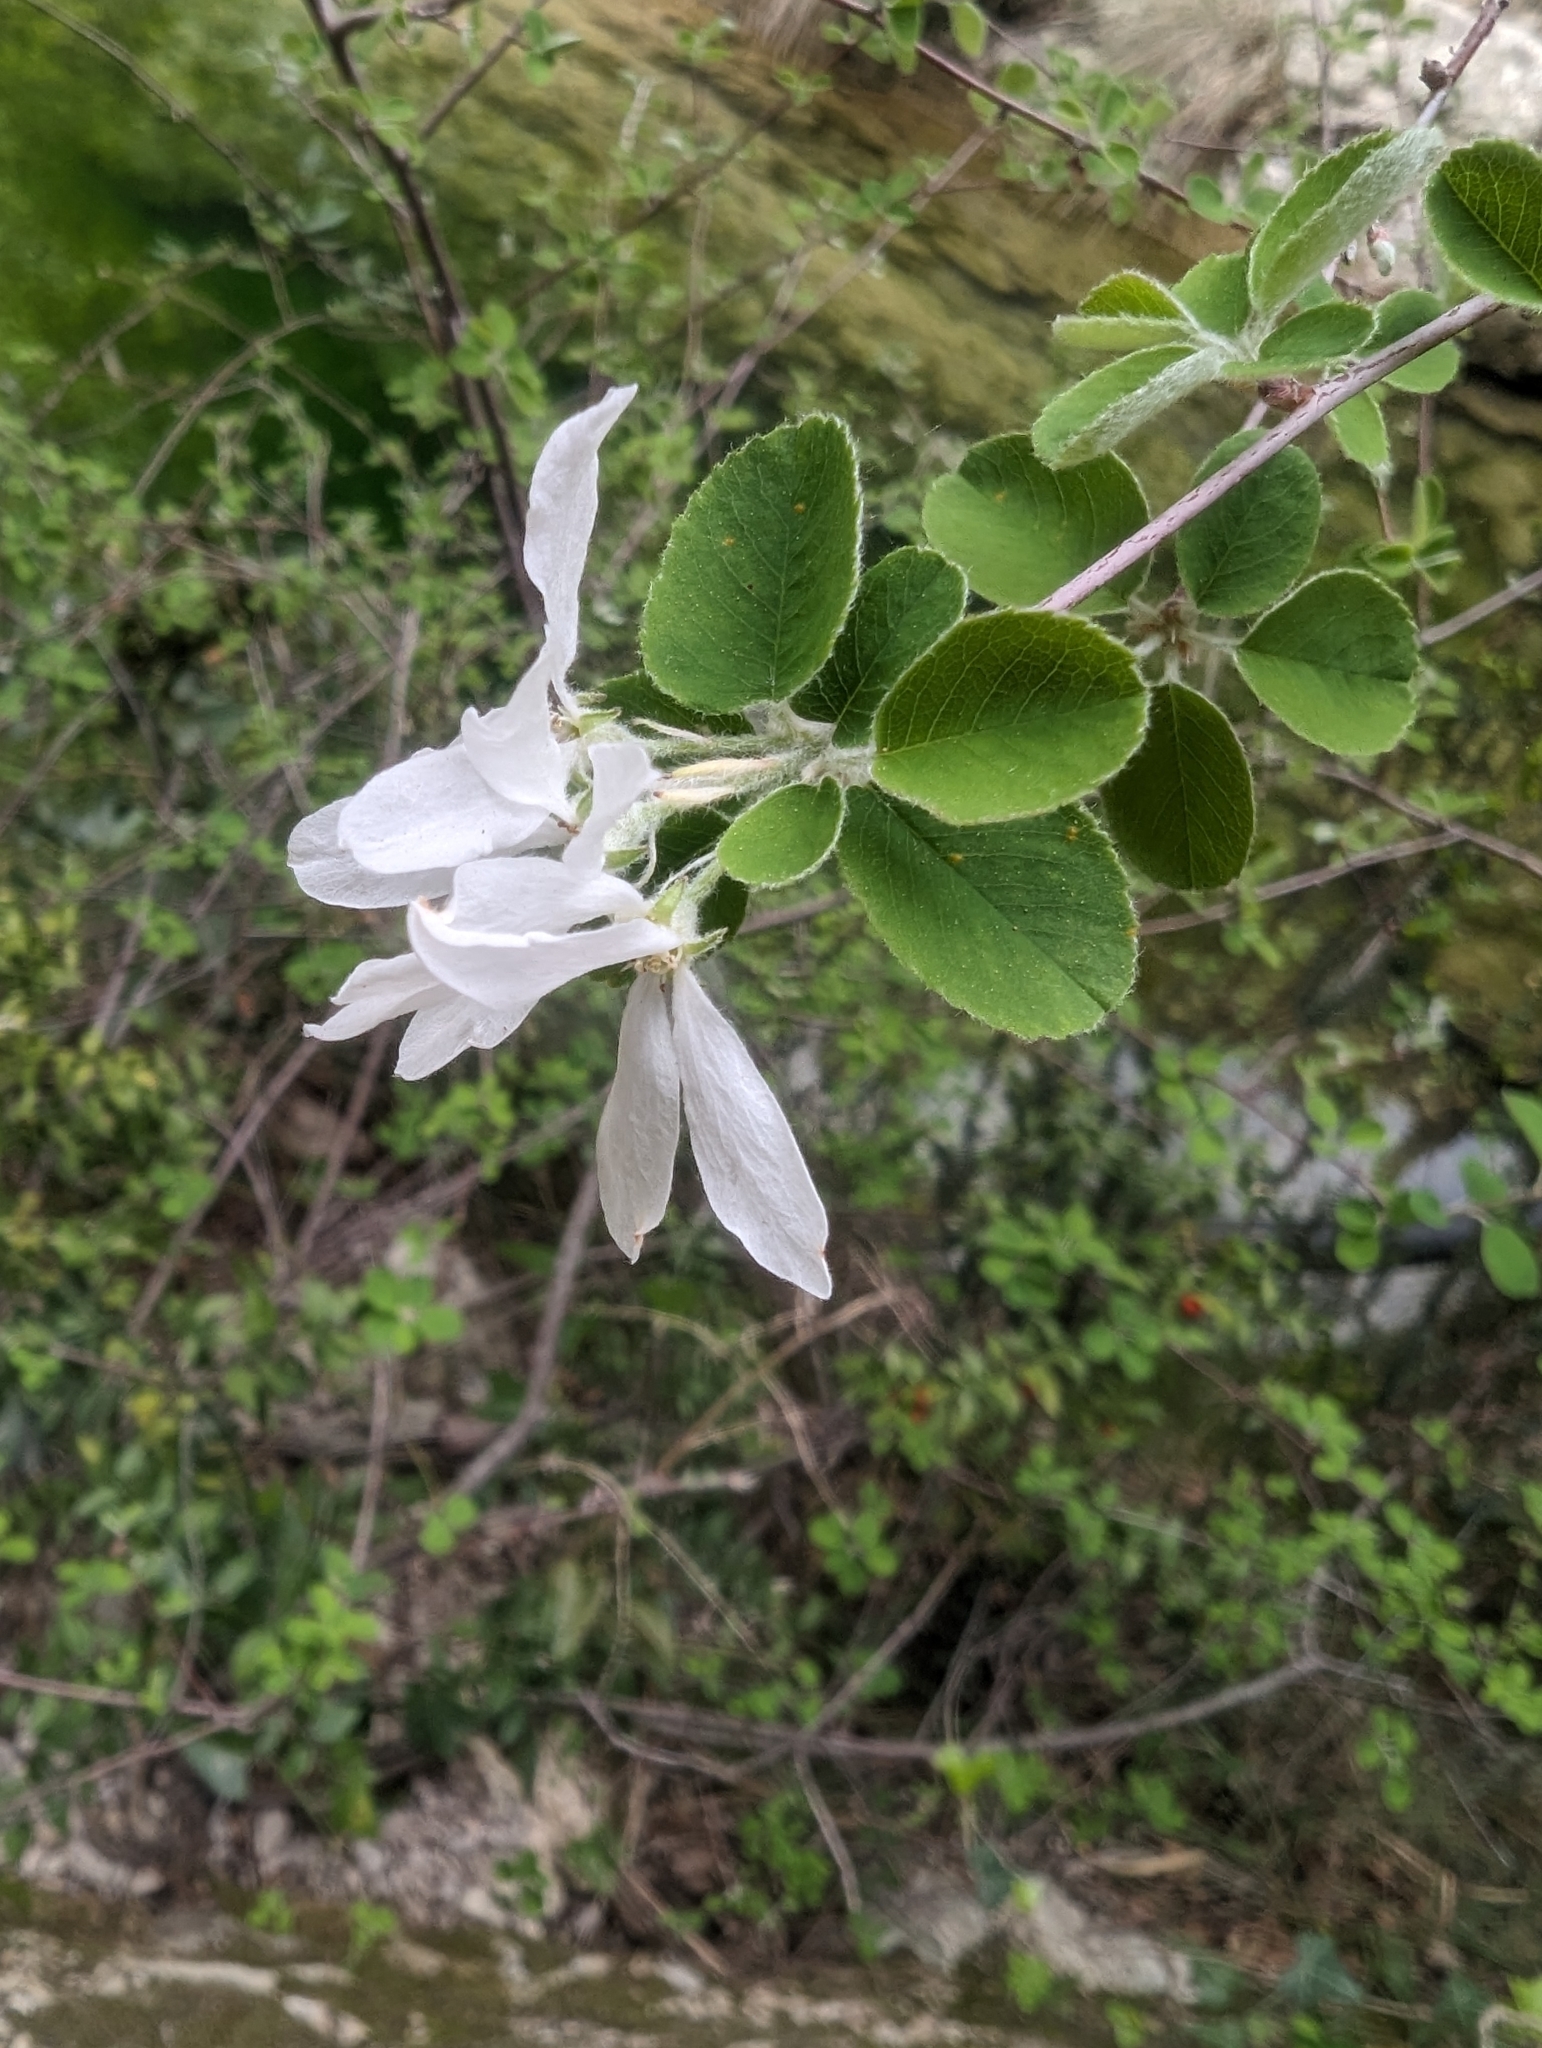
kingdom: Plantae
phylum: Tracheophyta
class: Magnoliopsida
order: Rosales
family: Rosaceae
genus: Amelanchier
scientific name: Amelanchier ovalis
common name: Serviceberry
